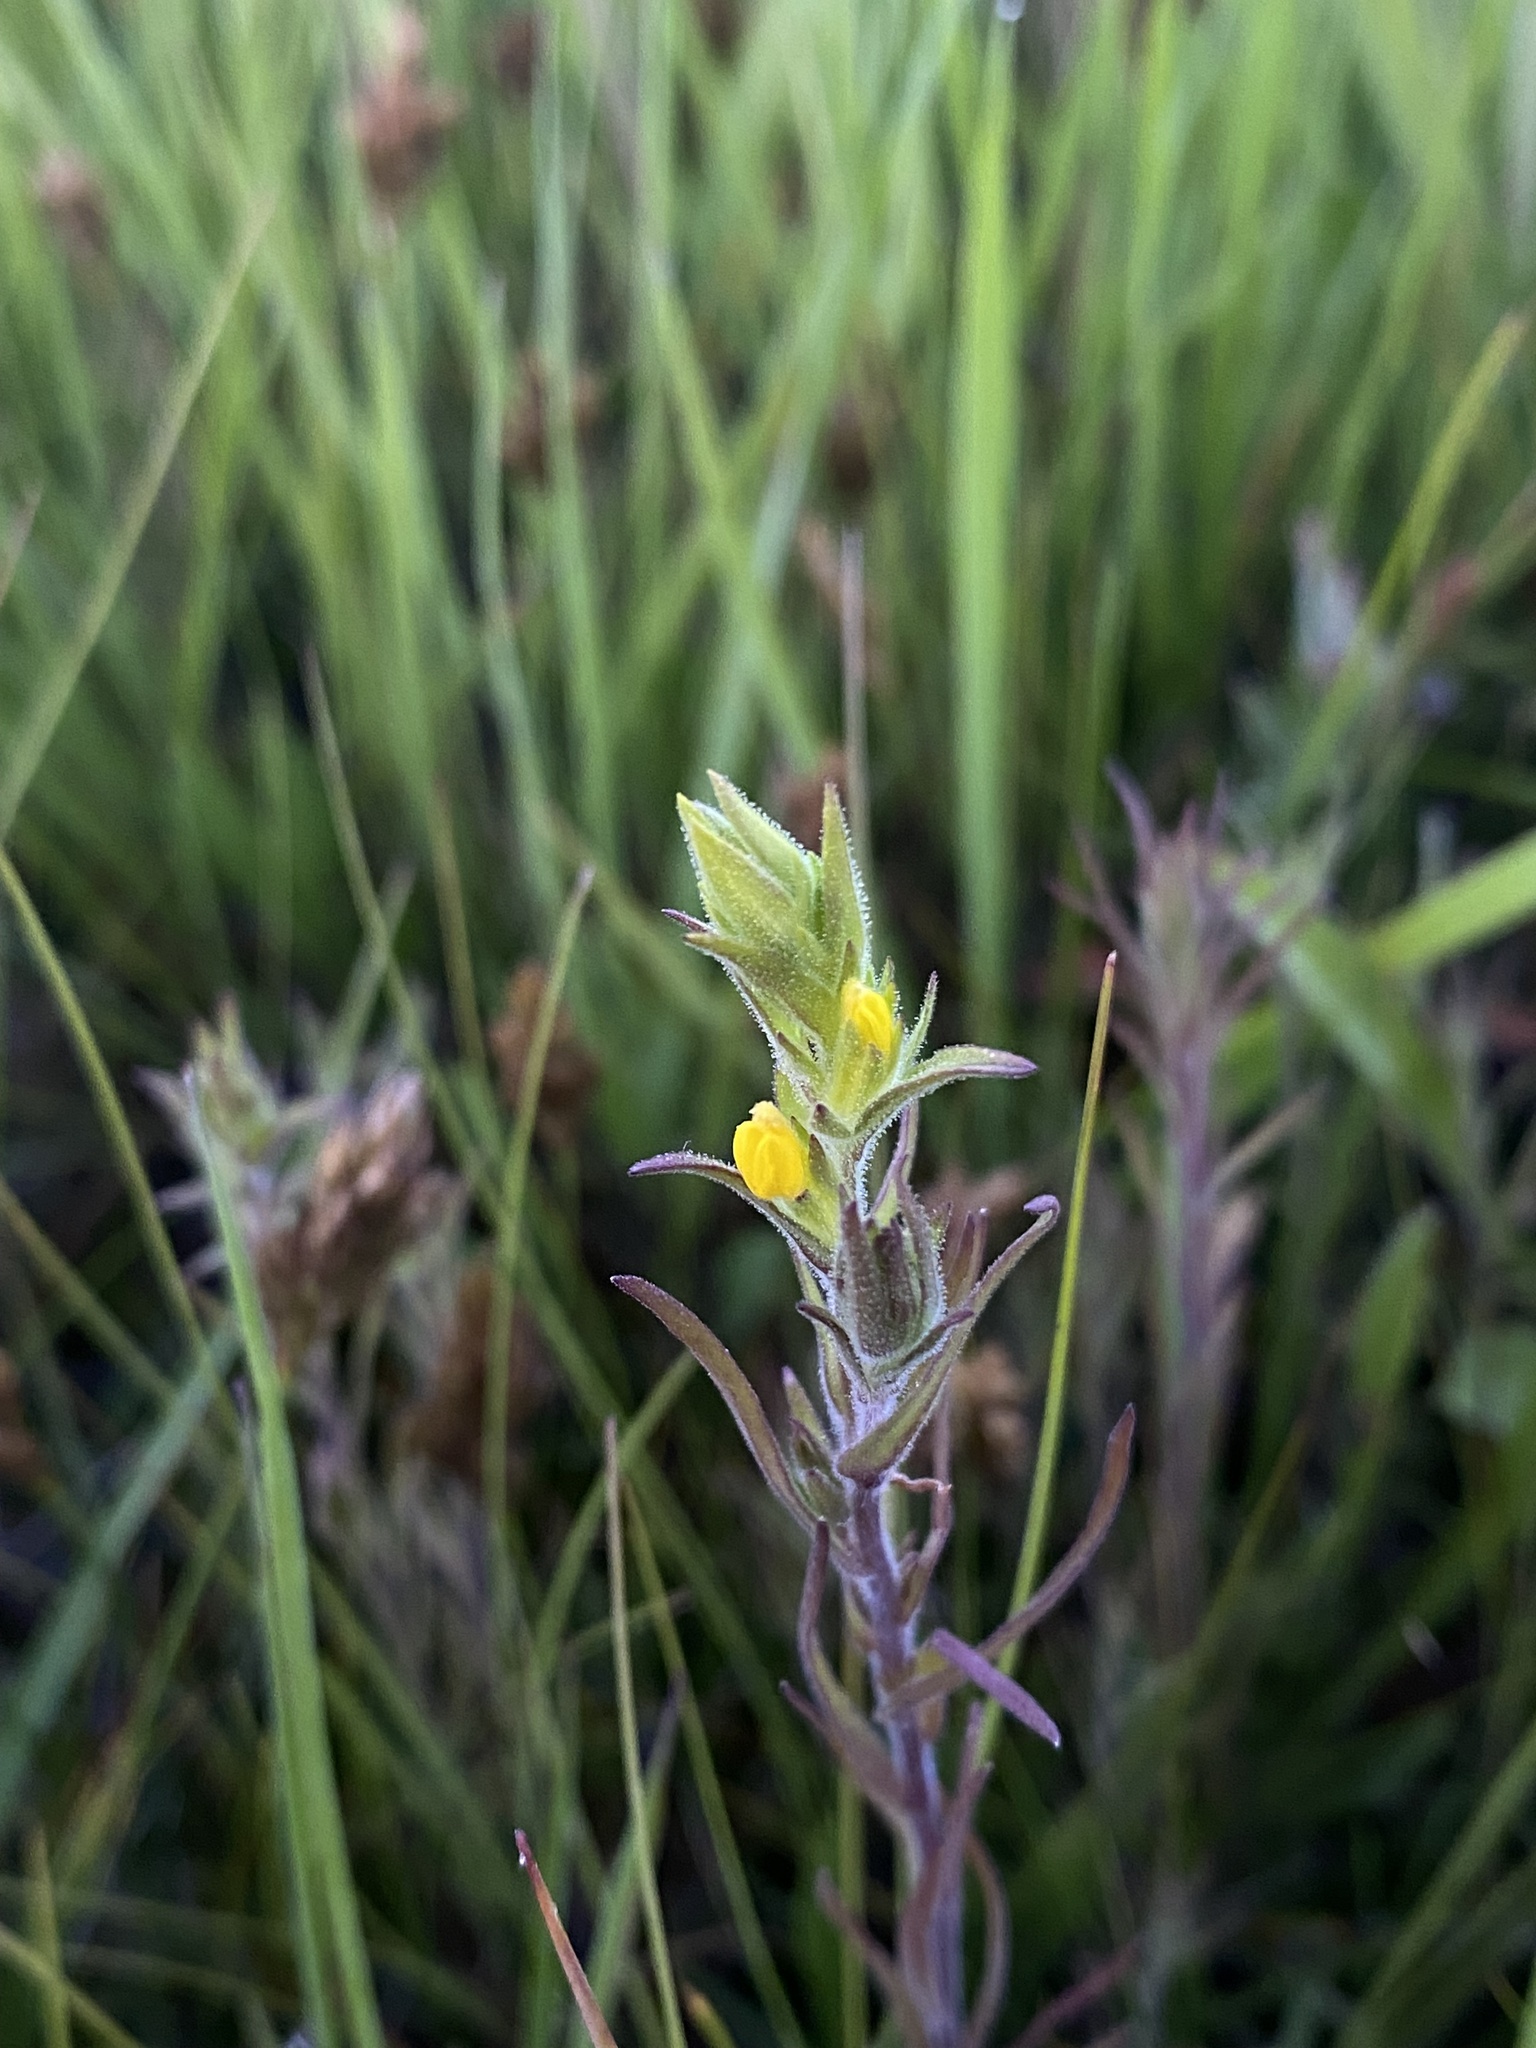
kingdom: Plantae
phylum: Tracheophyta
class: Magnoliopsida
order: Lamiales
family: Orobanchaceae
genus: Orthocarpus
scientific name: Orthocarpus luteus
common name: Golden-tongue owl's-clover
